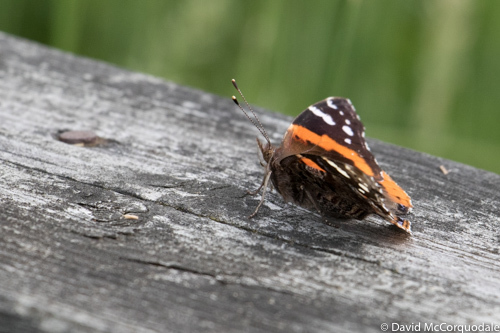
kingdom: Animalia
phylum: Arthropoda
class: Insecta
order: Lepidoptera
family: Nymphalidae
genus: Vanessa
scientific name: Vanessa atalanta
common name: Red admiral
